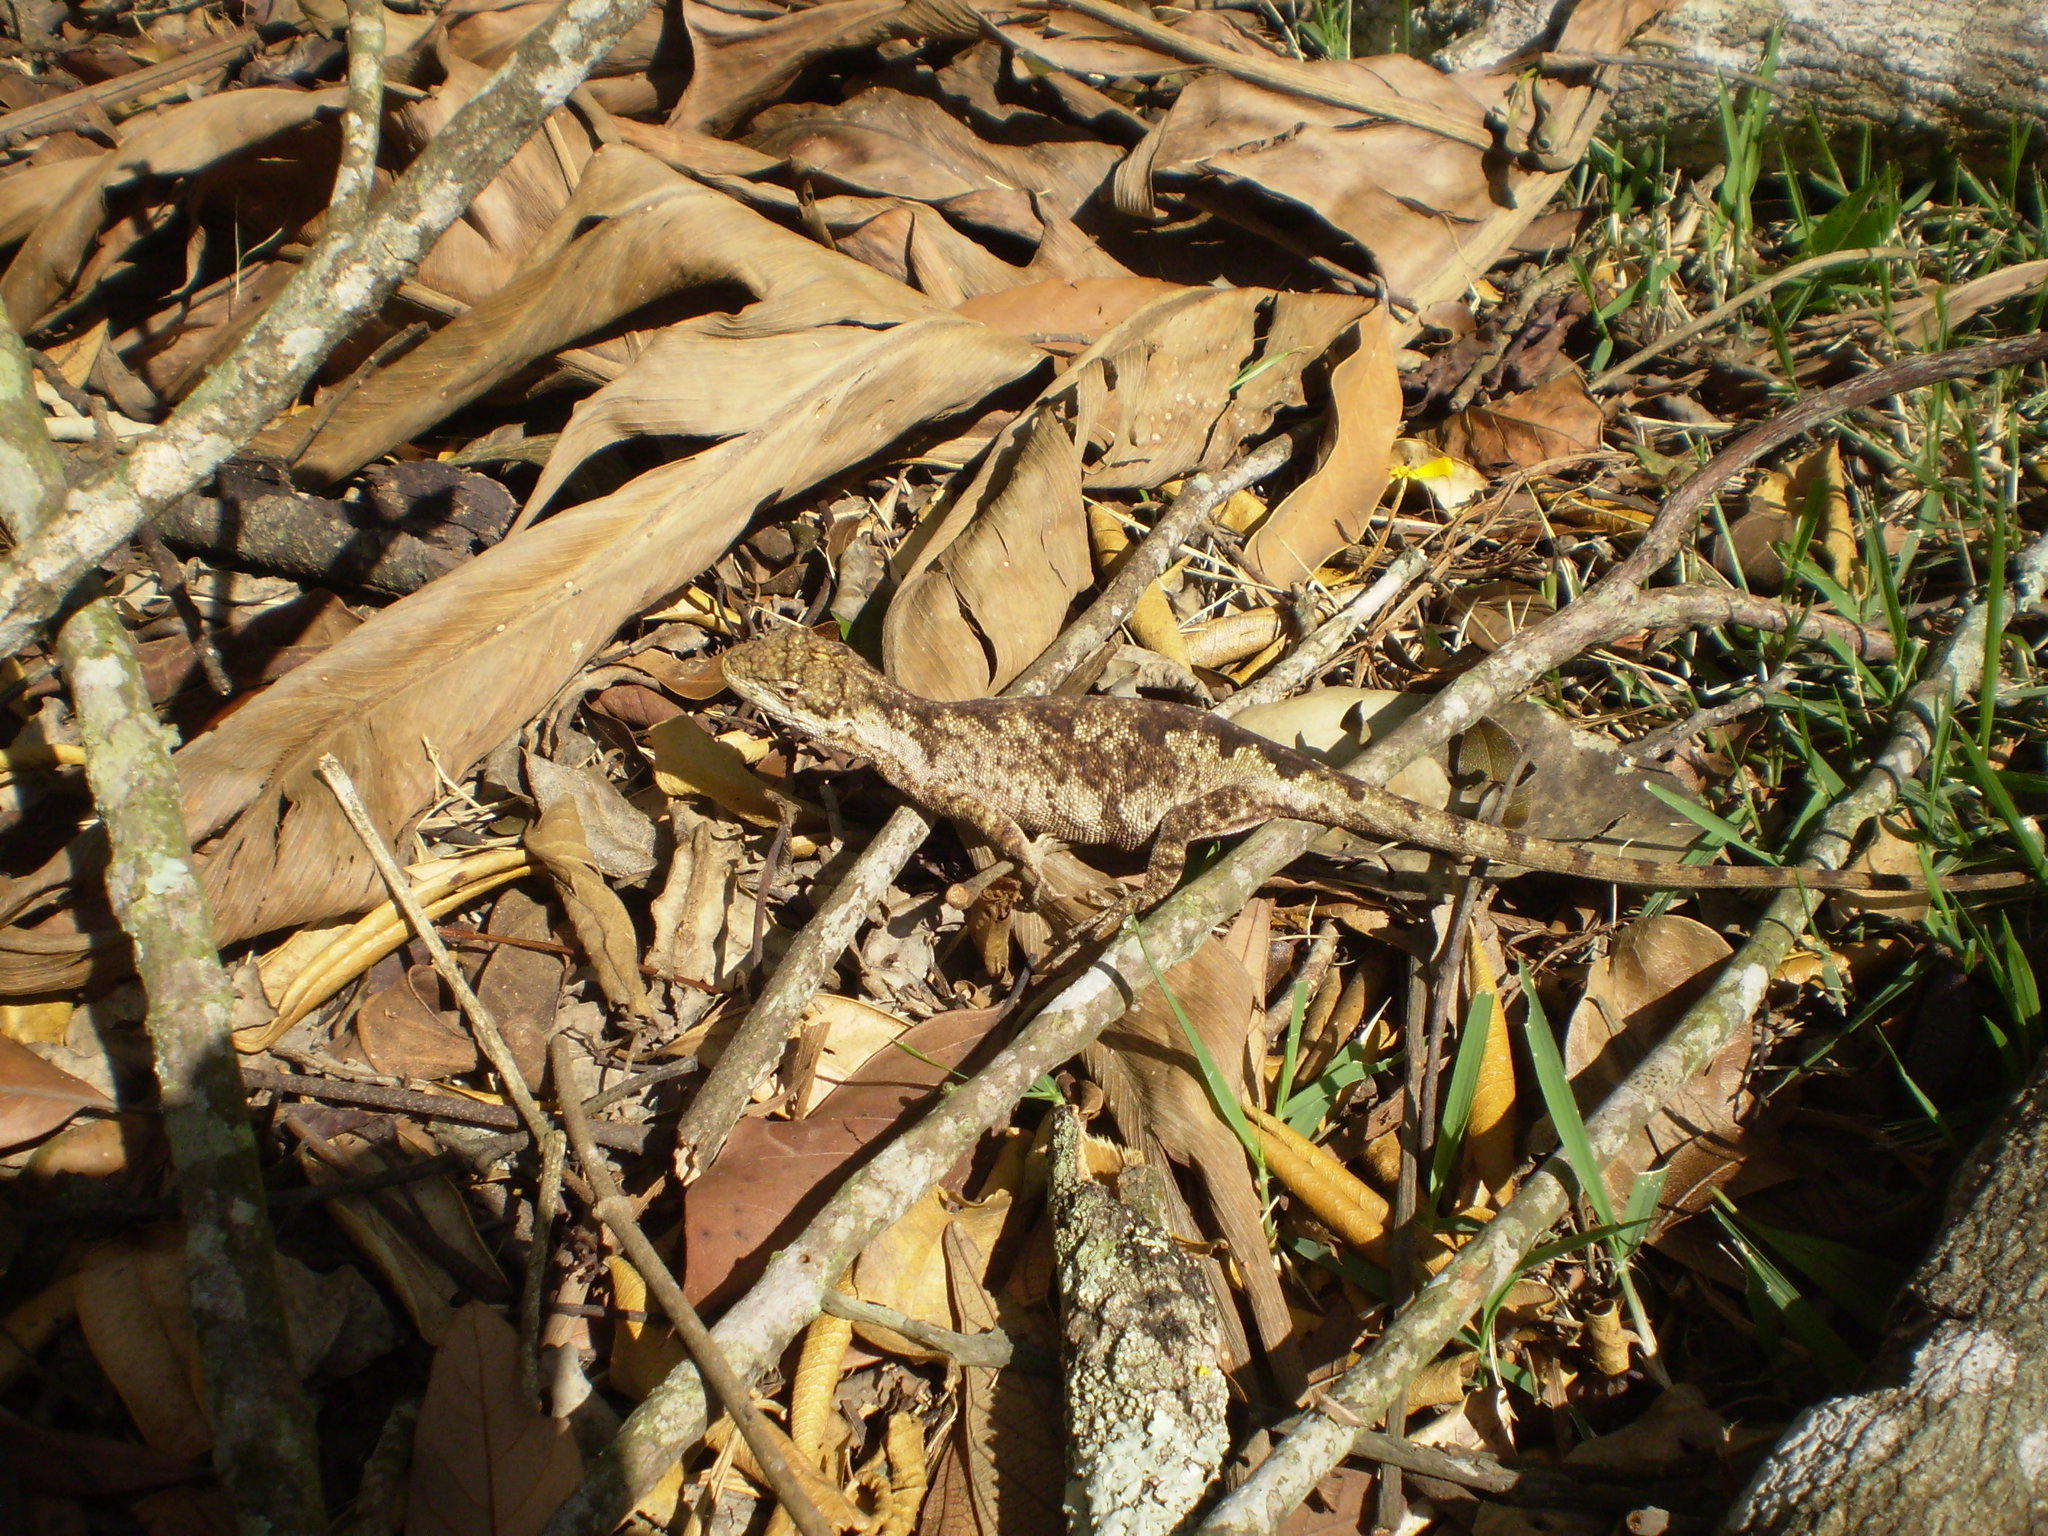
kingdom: Animalia
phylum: Chordata
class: Squamata
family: Leiosauridae
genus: Urostrophus
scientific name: Urostrophus vautieri
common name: Brazilian steppe iguana
